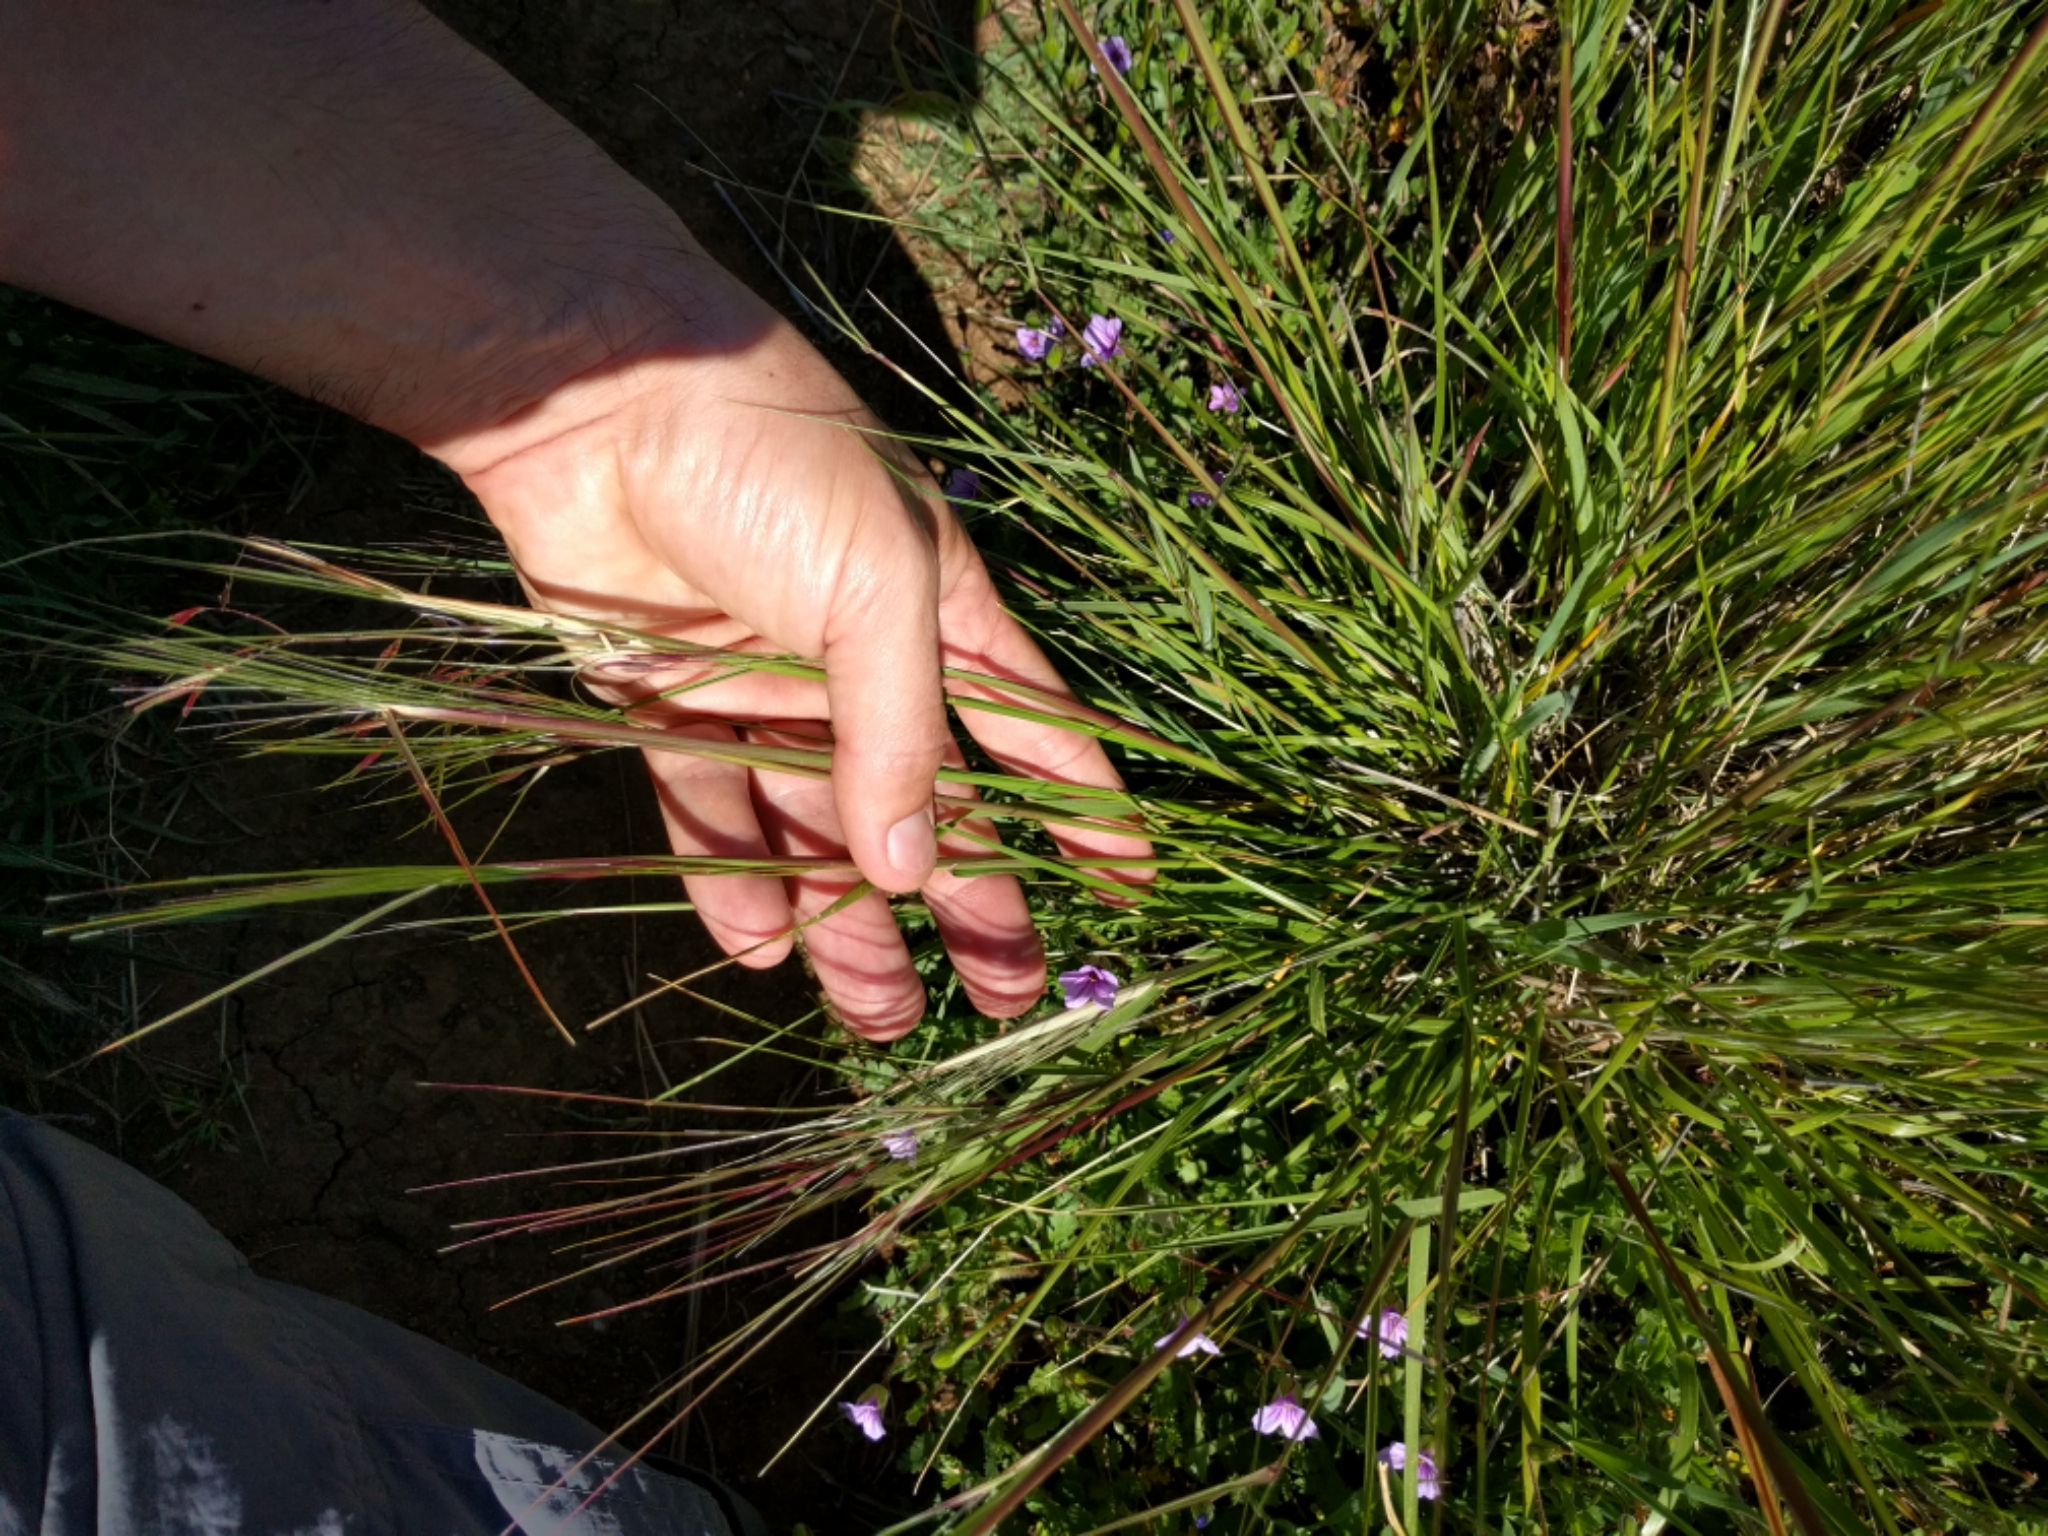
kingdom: Plantae
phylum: Tracheophyta
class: Liliopsida
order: Poales
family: Poaceae
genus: Nassella
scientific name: Nassella pulchra
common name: Purple needlegrass
